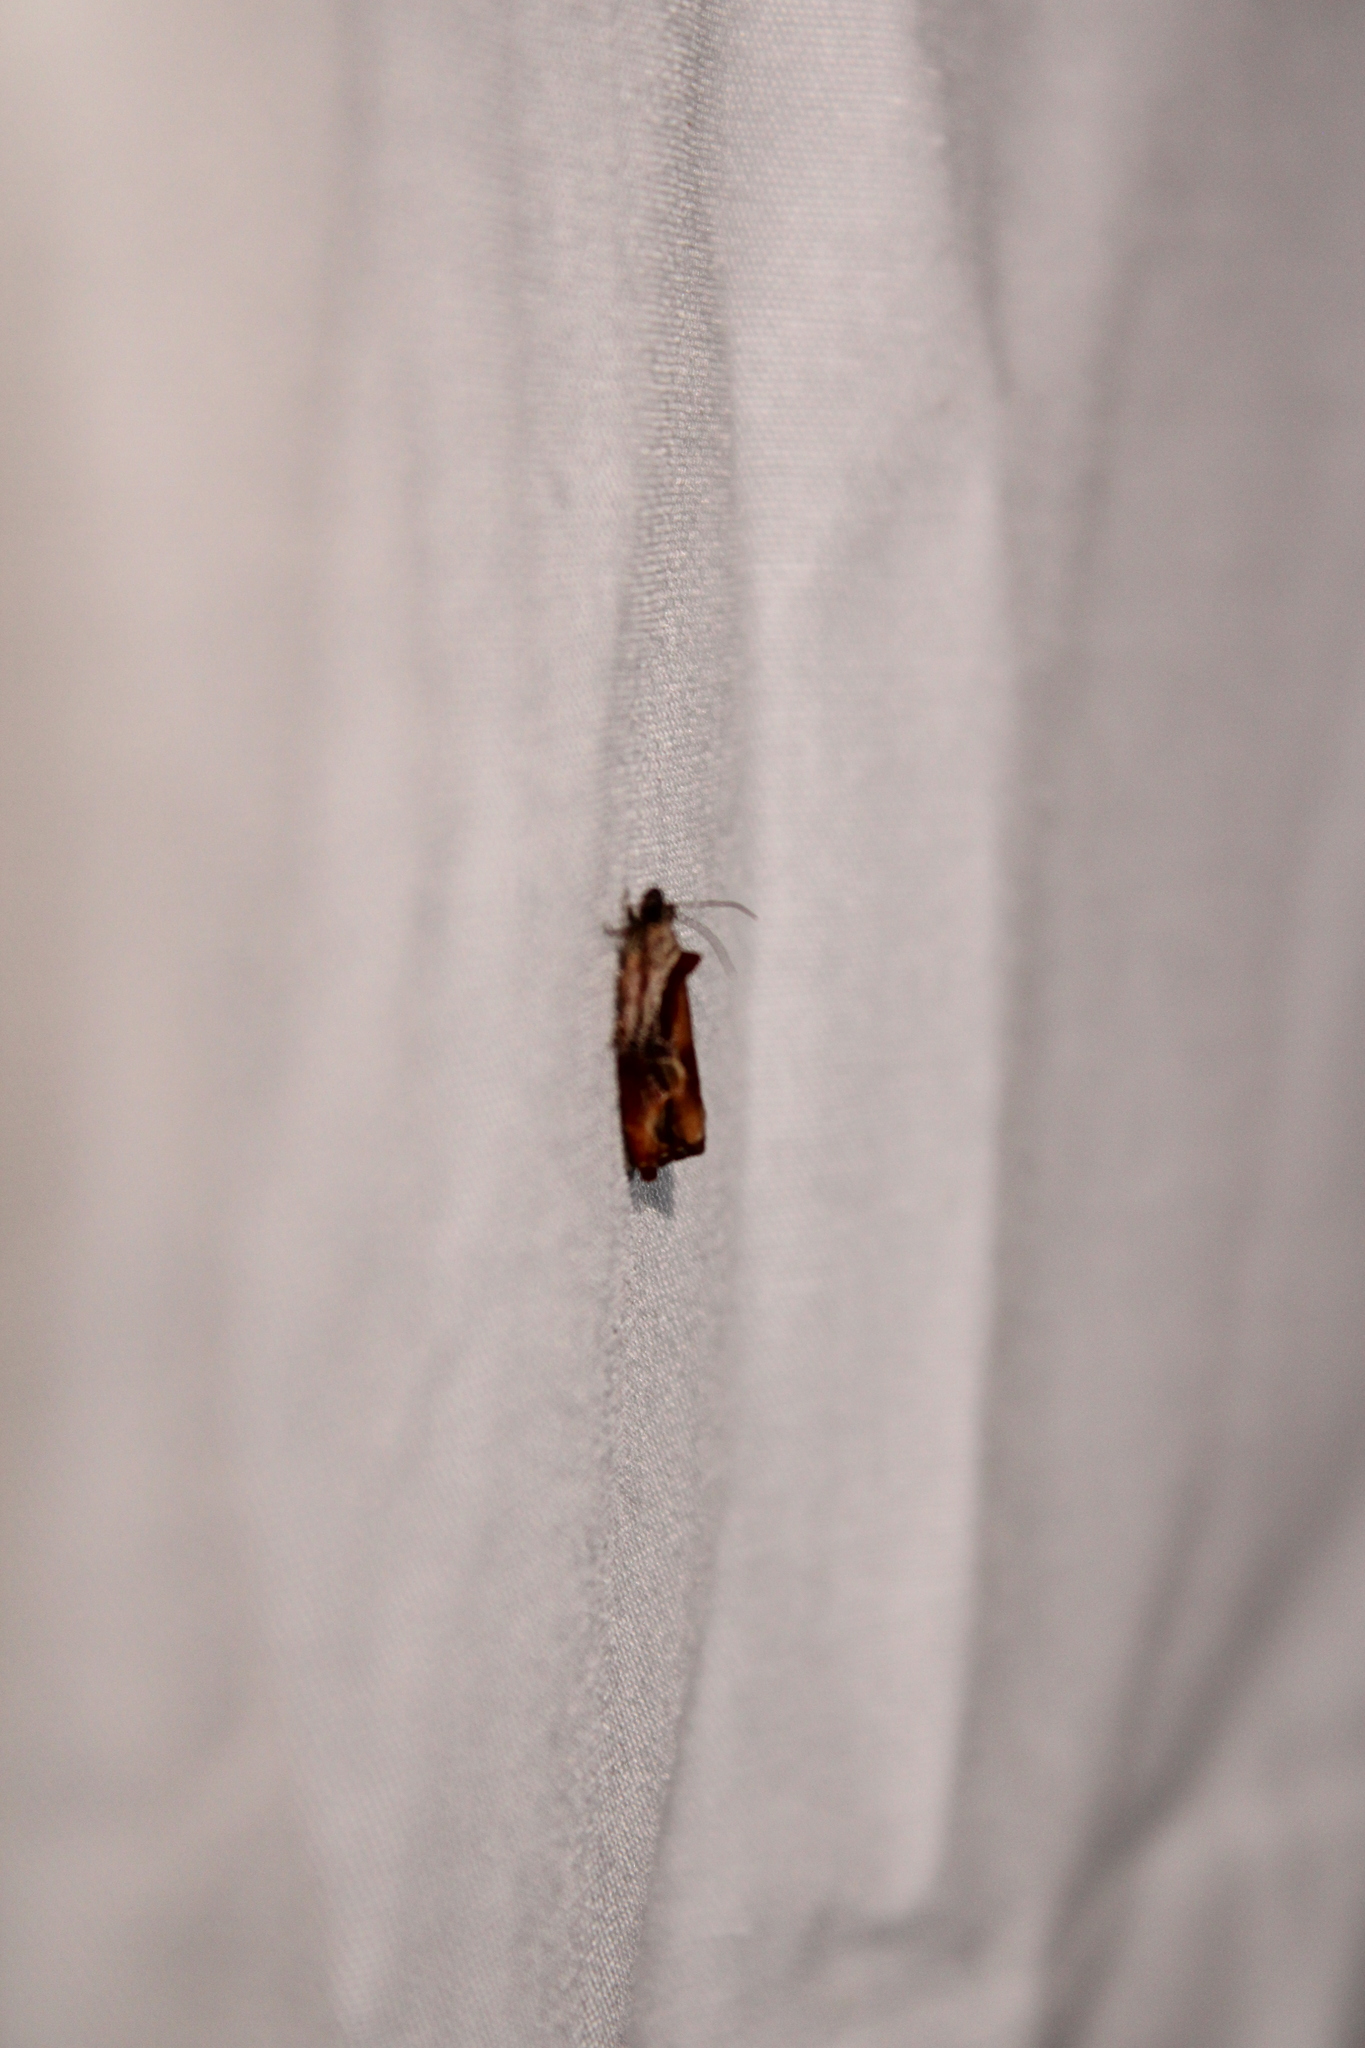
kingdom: Animalia
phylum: Arthropoda
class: Insecta
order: Lepidoptera
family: Tortricidae
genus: Zomaria
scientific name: Zomaria interruptolineana
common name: Broken-lined zomaria moth
